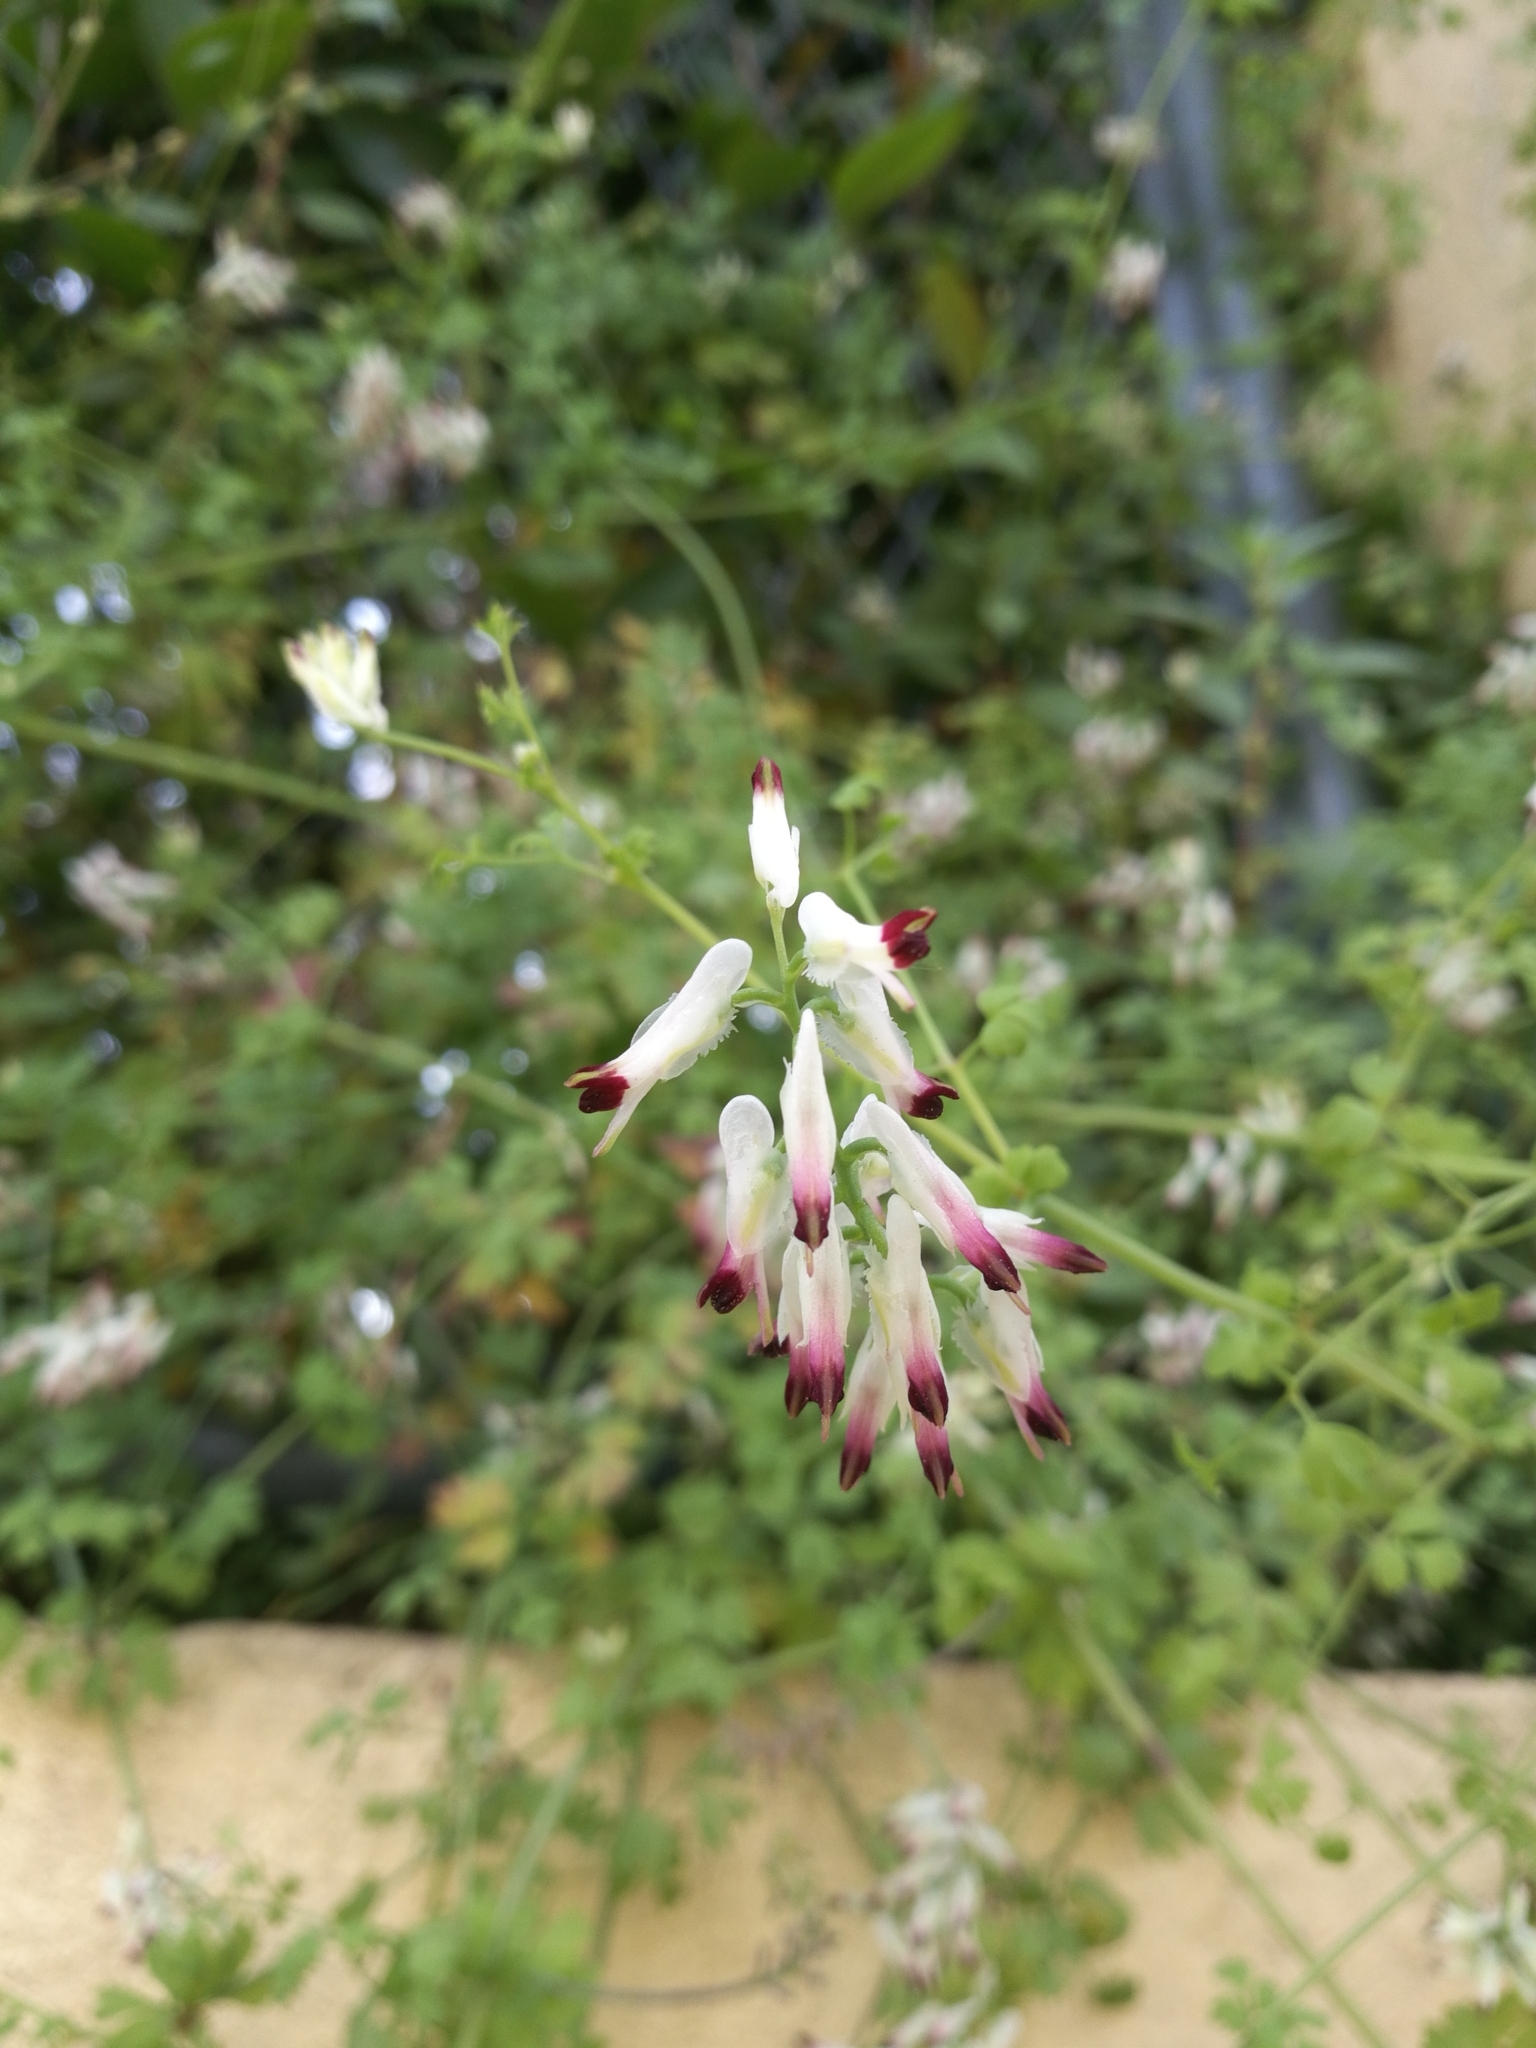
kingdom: Plantae
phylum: Tracheophyta
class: Magnoliopsida
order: Ranunculales
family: Papaveraceae
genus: Fumaria
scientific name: Fumaria capreolata
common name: White ramping-fumitory
